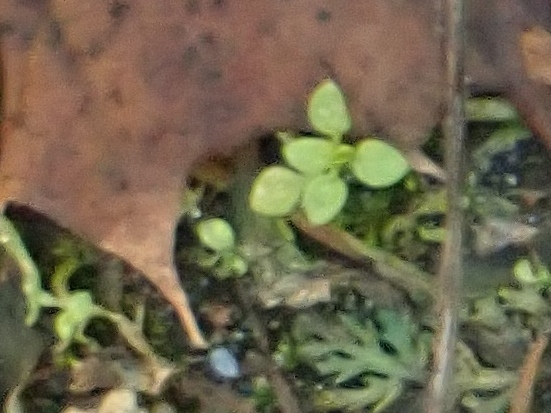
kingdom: Plantae
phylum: Tracheophyta
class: Magnoliopsida
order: Caryophyllales
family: Caryophyllaceae
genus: Stellaria
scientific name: Stellaria media
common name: Common chickweed
